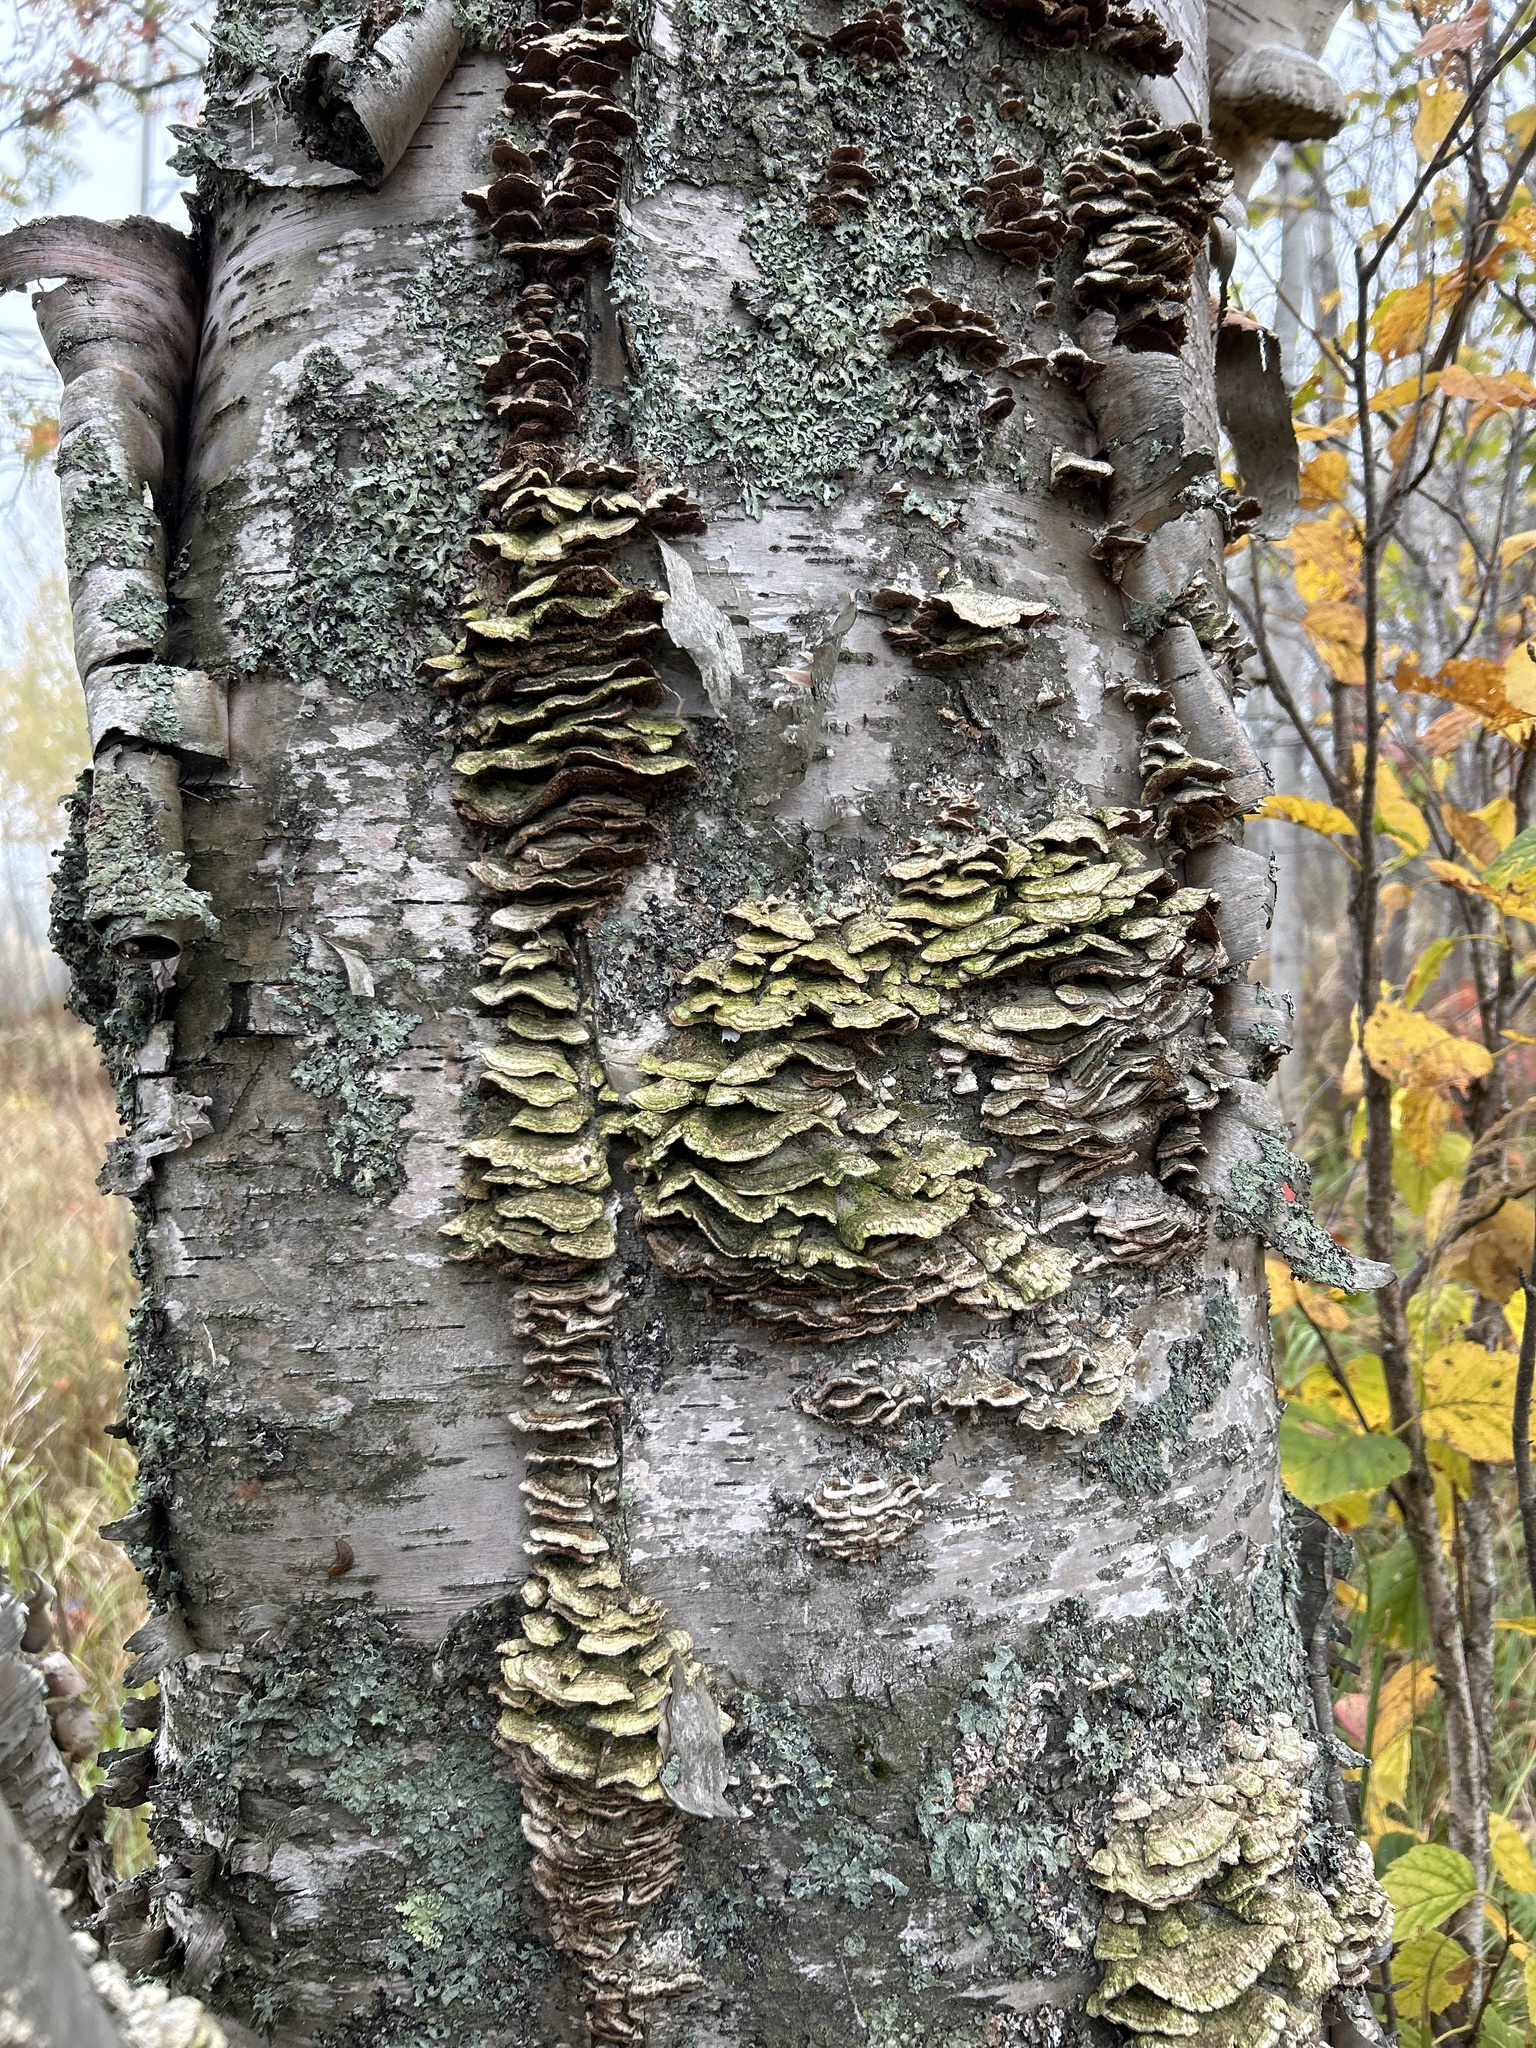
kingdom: Fungi
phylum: Basidiomycota
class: Agaricomycetes
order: Hymenochaetales
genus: Trichaptum
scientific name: Trichaptum biforme
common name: Violet-toothed polypore
